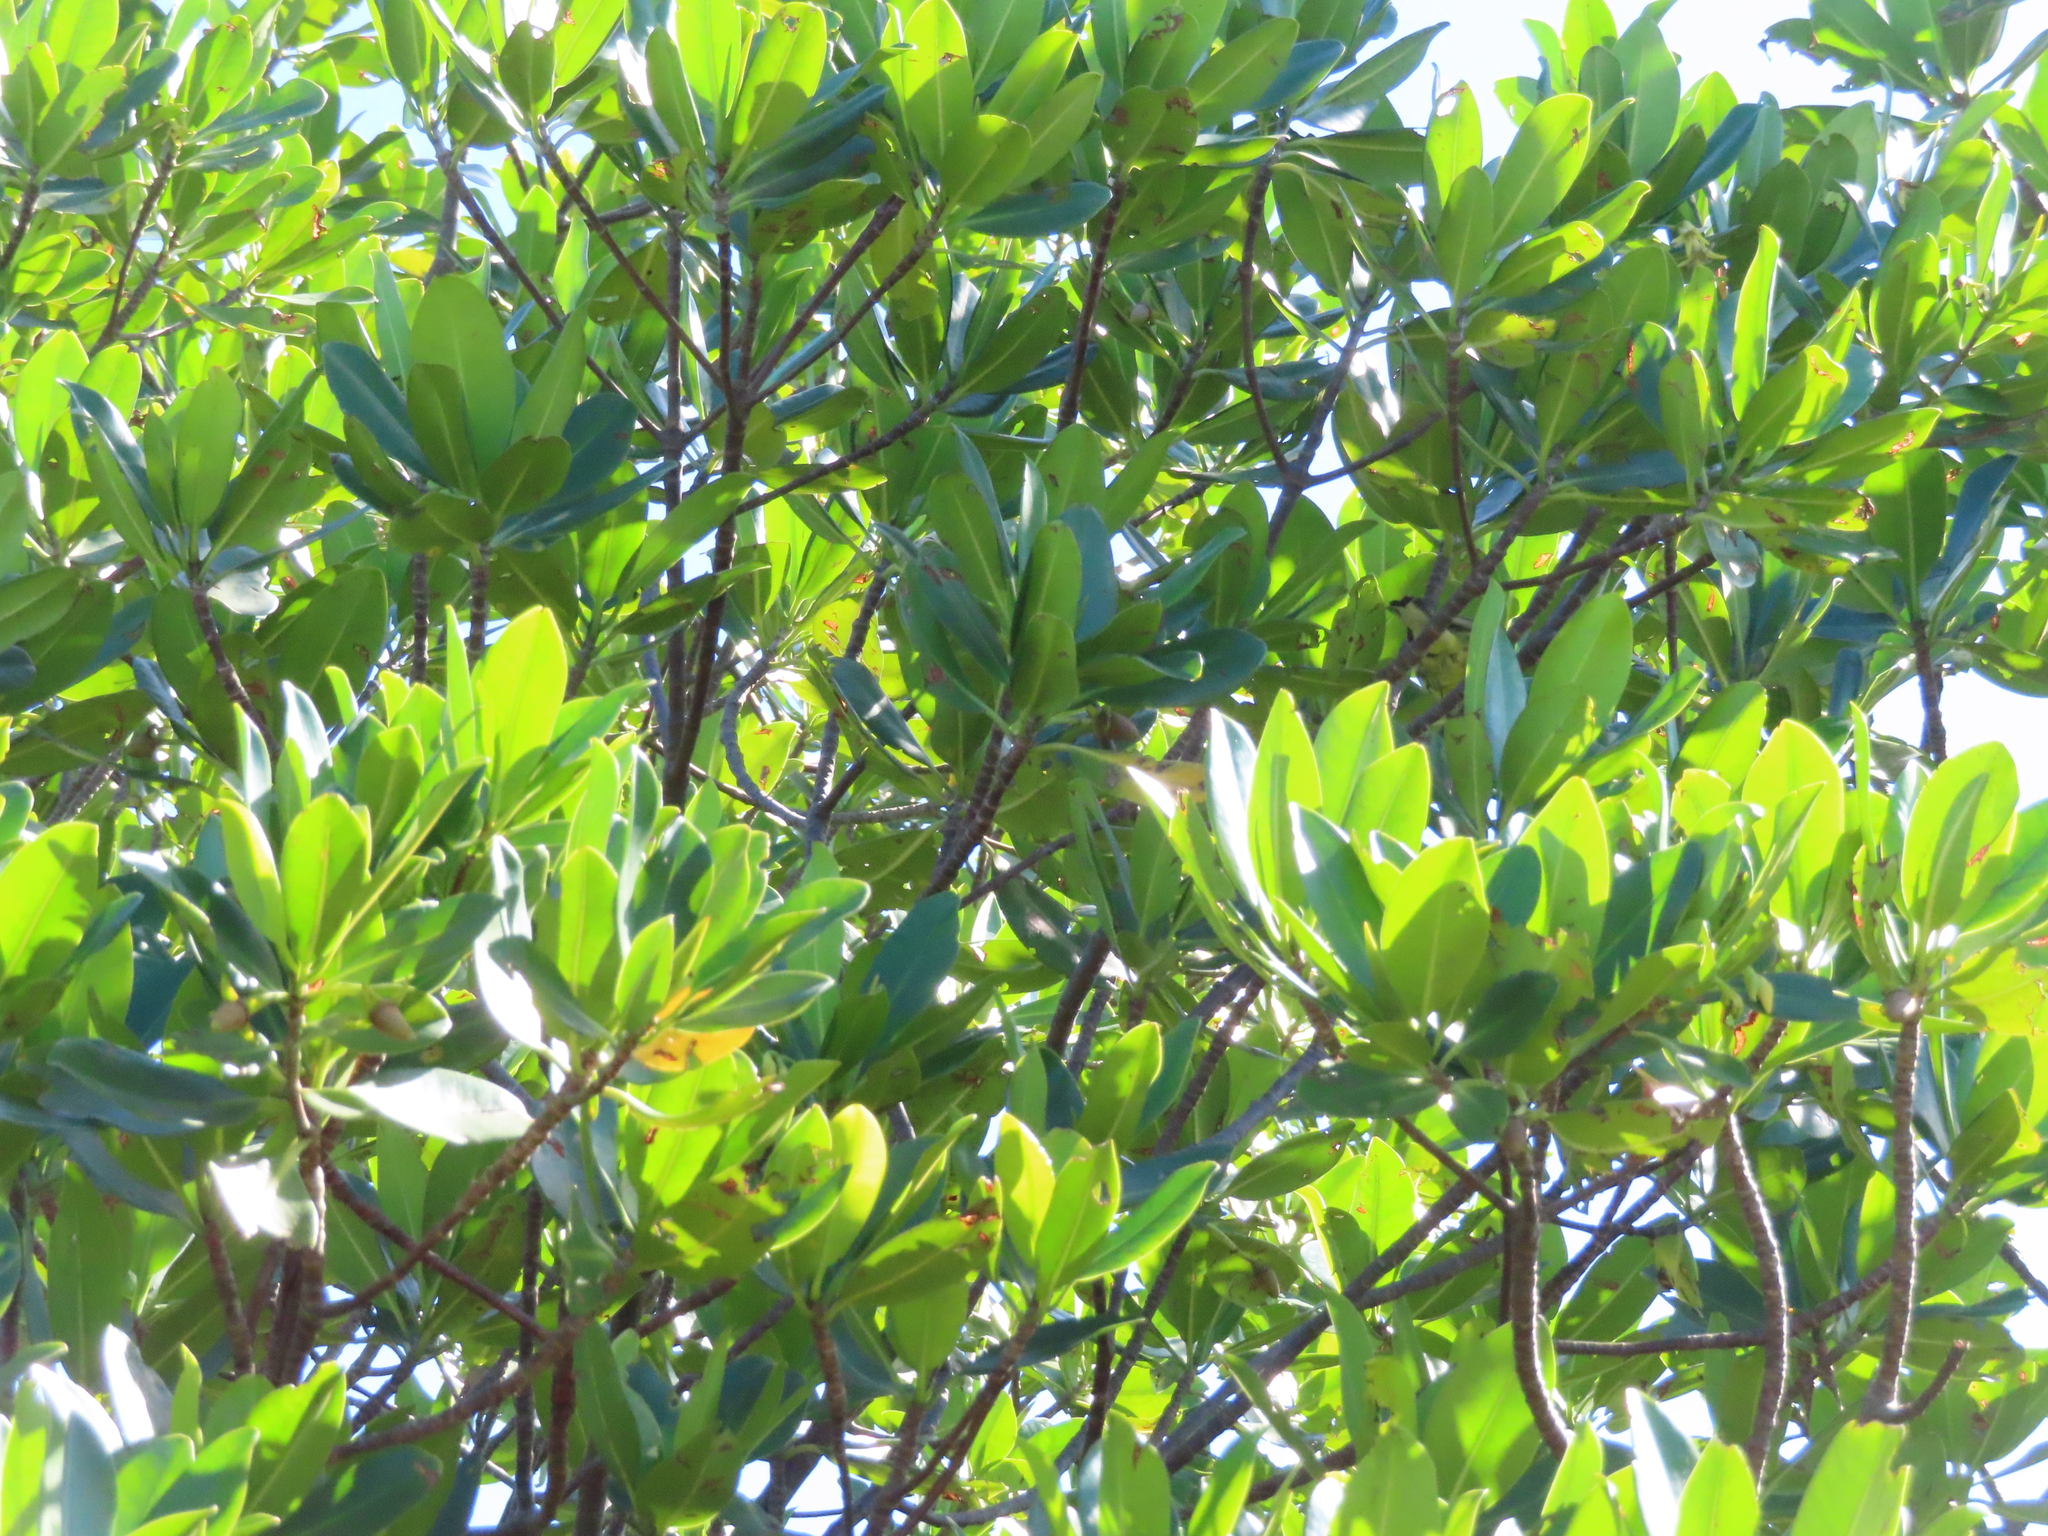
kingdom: Plantae
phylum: Tracheophyta
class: Magnoliopsida
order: Malpighiales
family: Rhizophoraceae
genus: Rhizophora
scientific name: Rhizophora mangle
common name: Red mangrove
